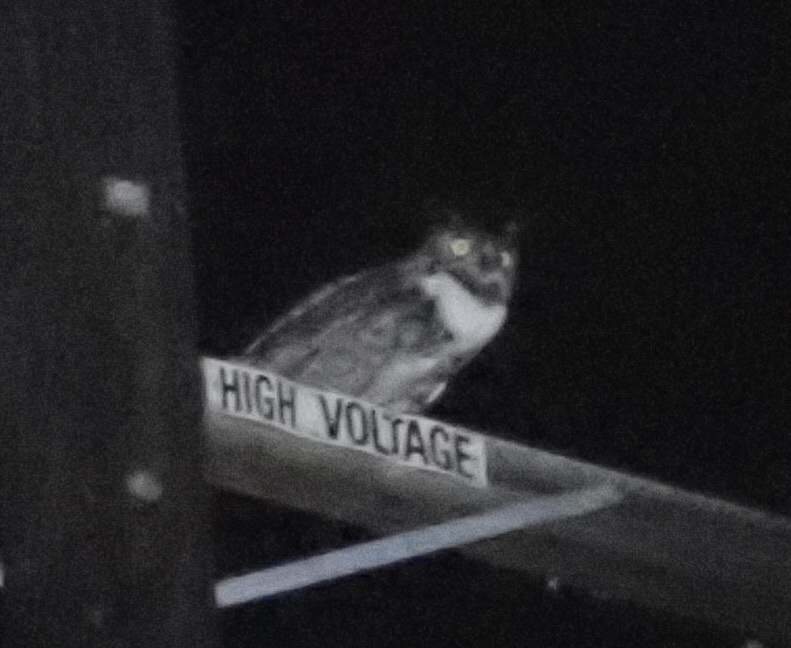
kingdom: Animalia
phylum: Chordata
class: Aves
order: Strigiformes
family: Strigidae
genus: Bubo
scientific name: Bubo virginianus
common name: Great horned owl
